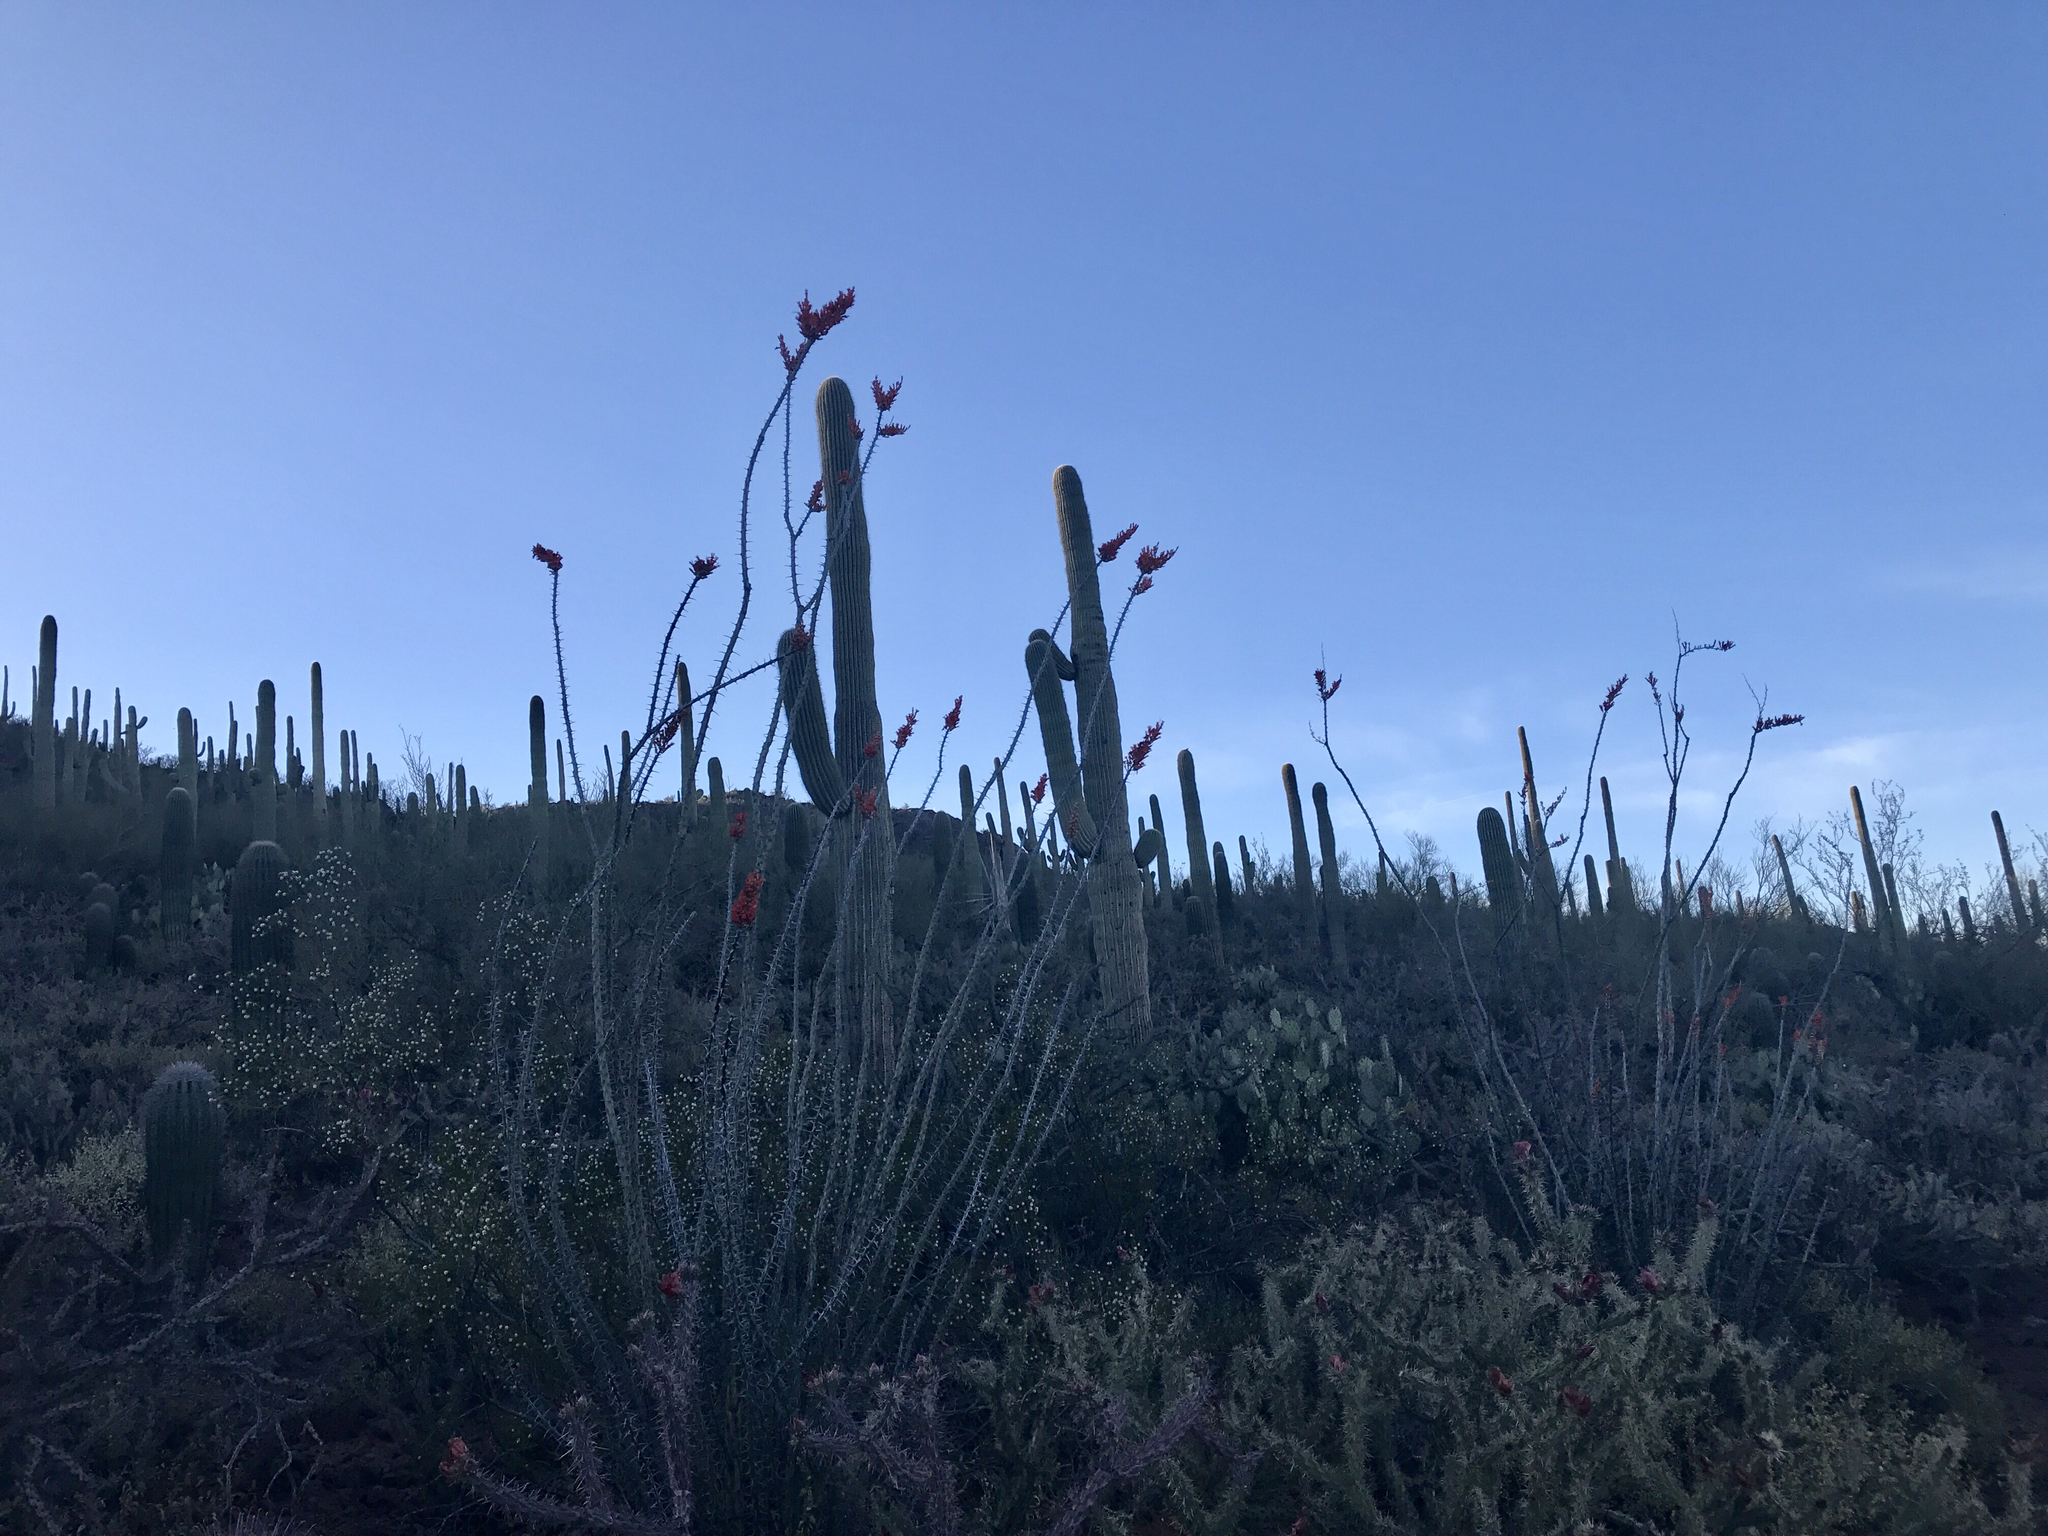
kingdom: Plantae
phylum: Tracheophyta
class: Magnoliopsida
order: Caryophyllales
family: Cactaceae
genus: Carnegiea
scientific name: Carnegiea gigantea
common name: Saguaro
